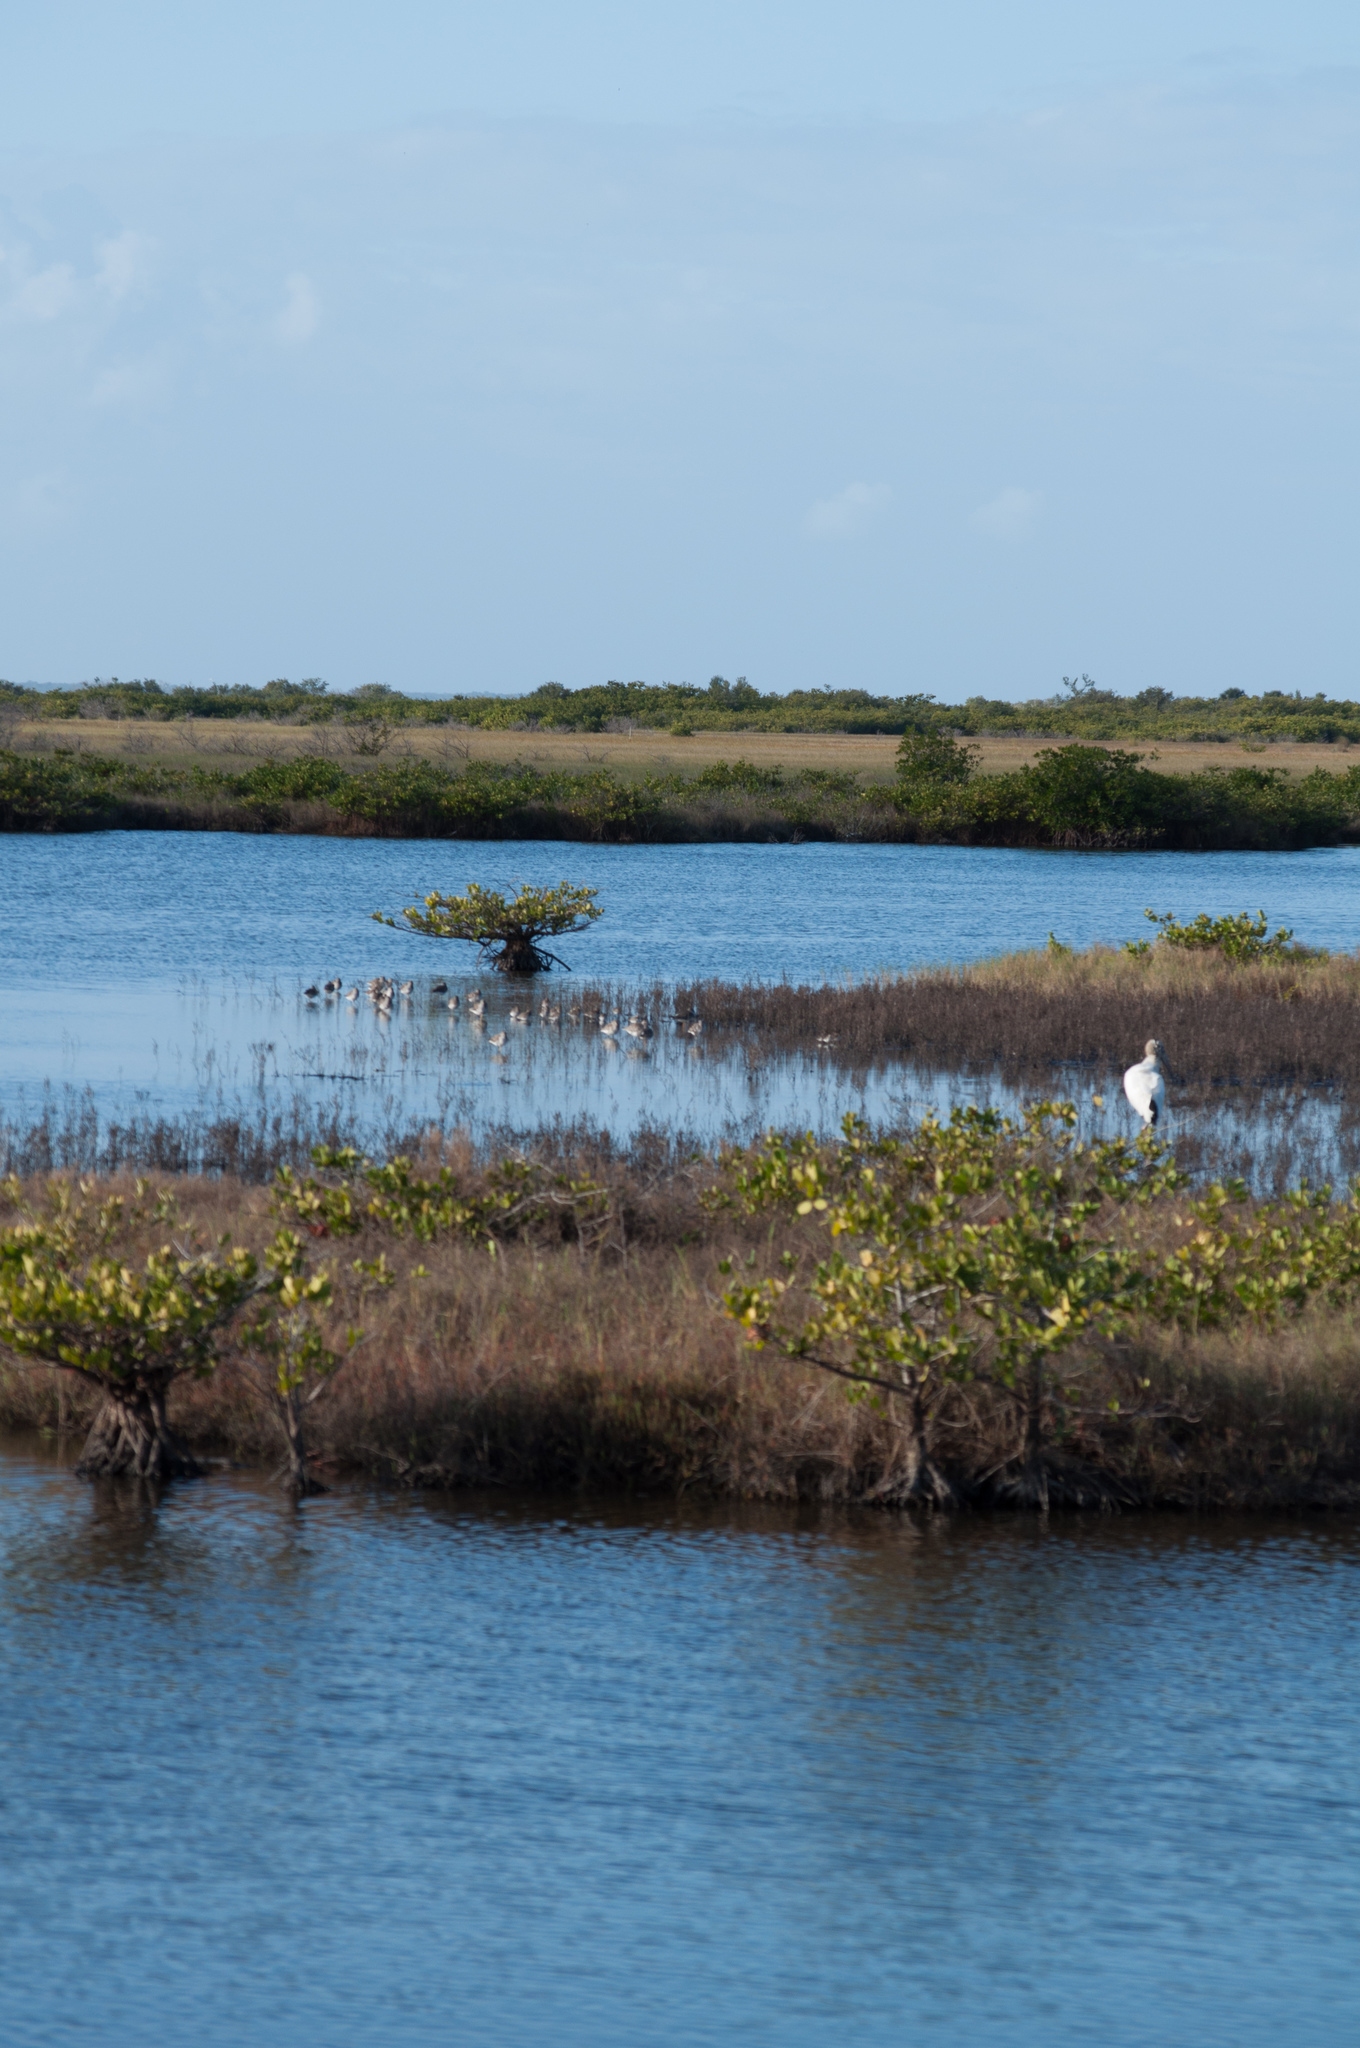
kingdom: Animalia
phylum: Chordata
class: Aves
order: Ciconiiformes
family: Ciconiidae
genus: Mycteria
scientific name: Mycteria americana
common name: Wood stork
